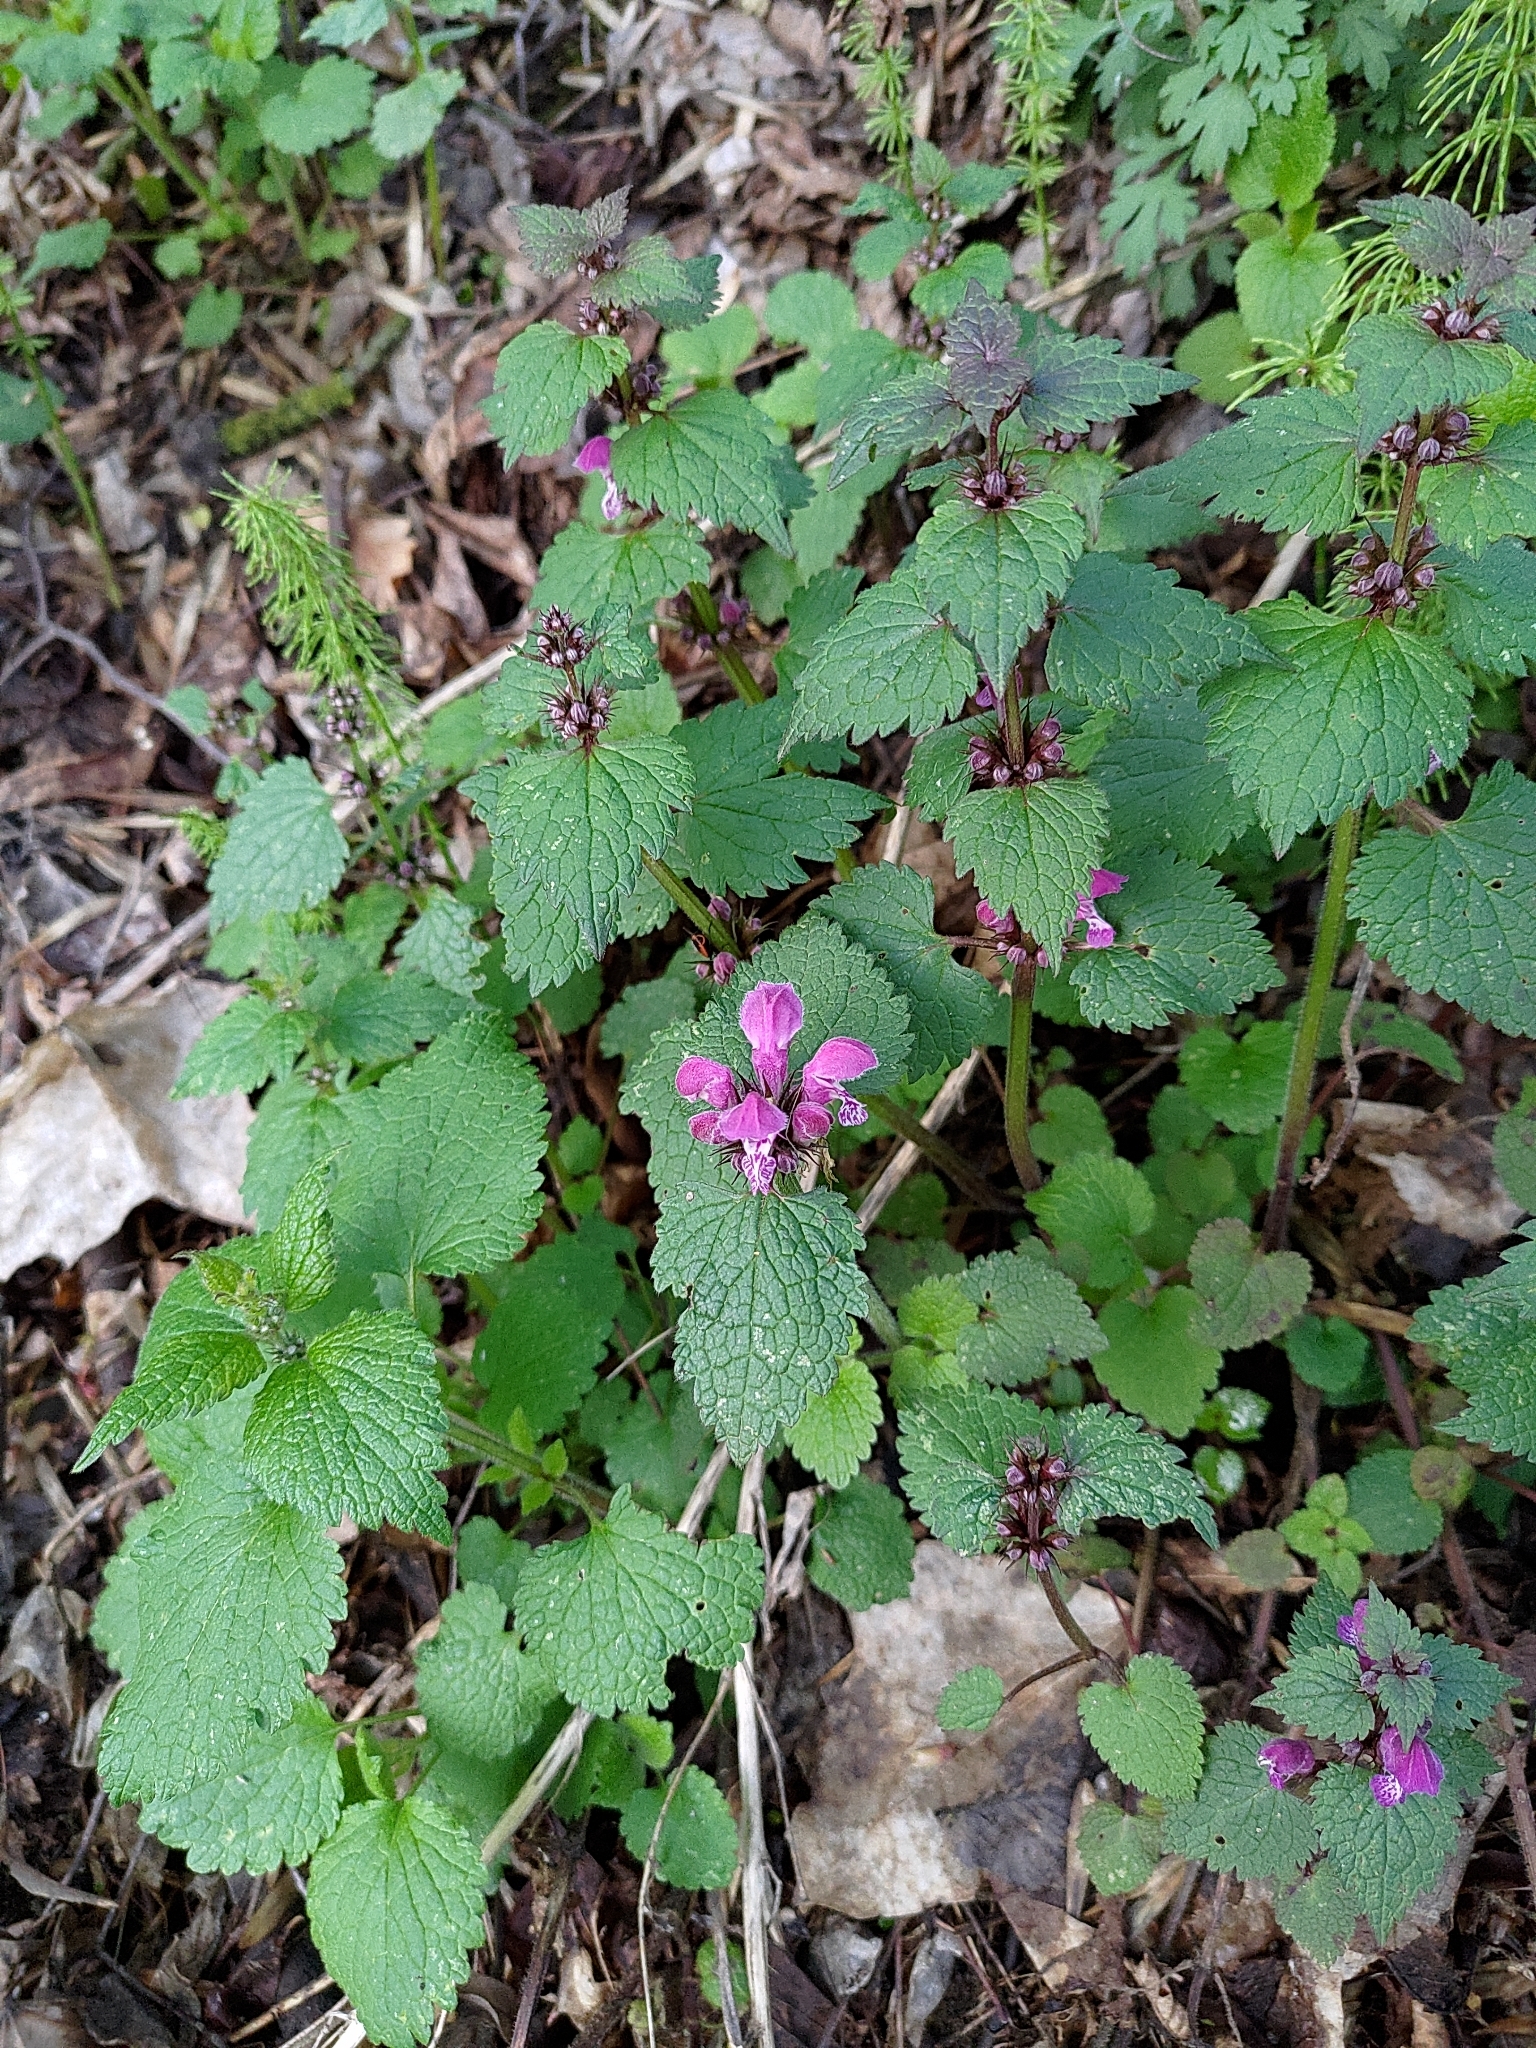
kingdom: Plantae
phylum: Tracheophyta
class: Magnoliopsida
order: Lamiales
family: Lamiaceae
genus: Lamium
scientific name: Lamium maculatum
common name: Spotted dead-nettle
